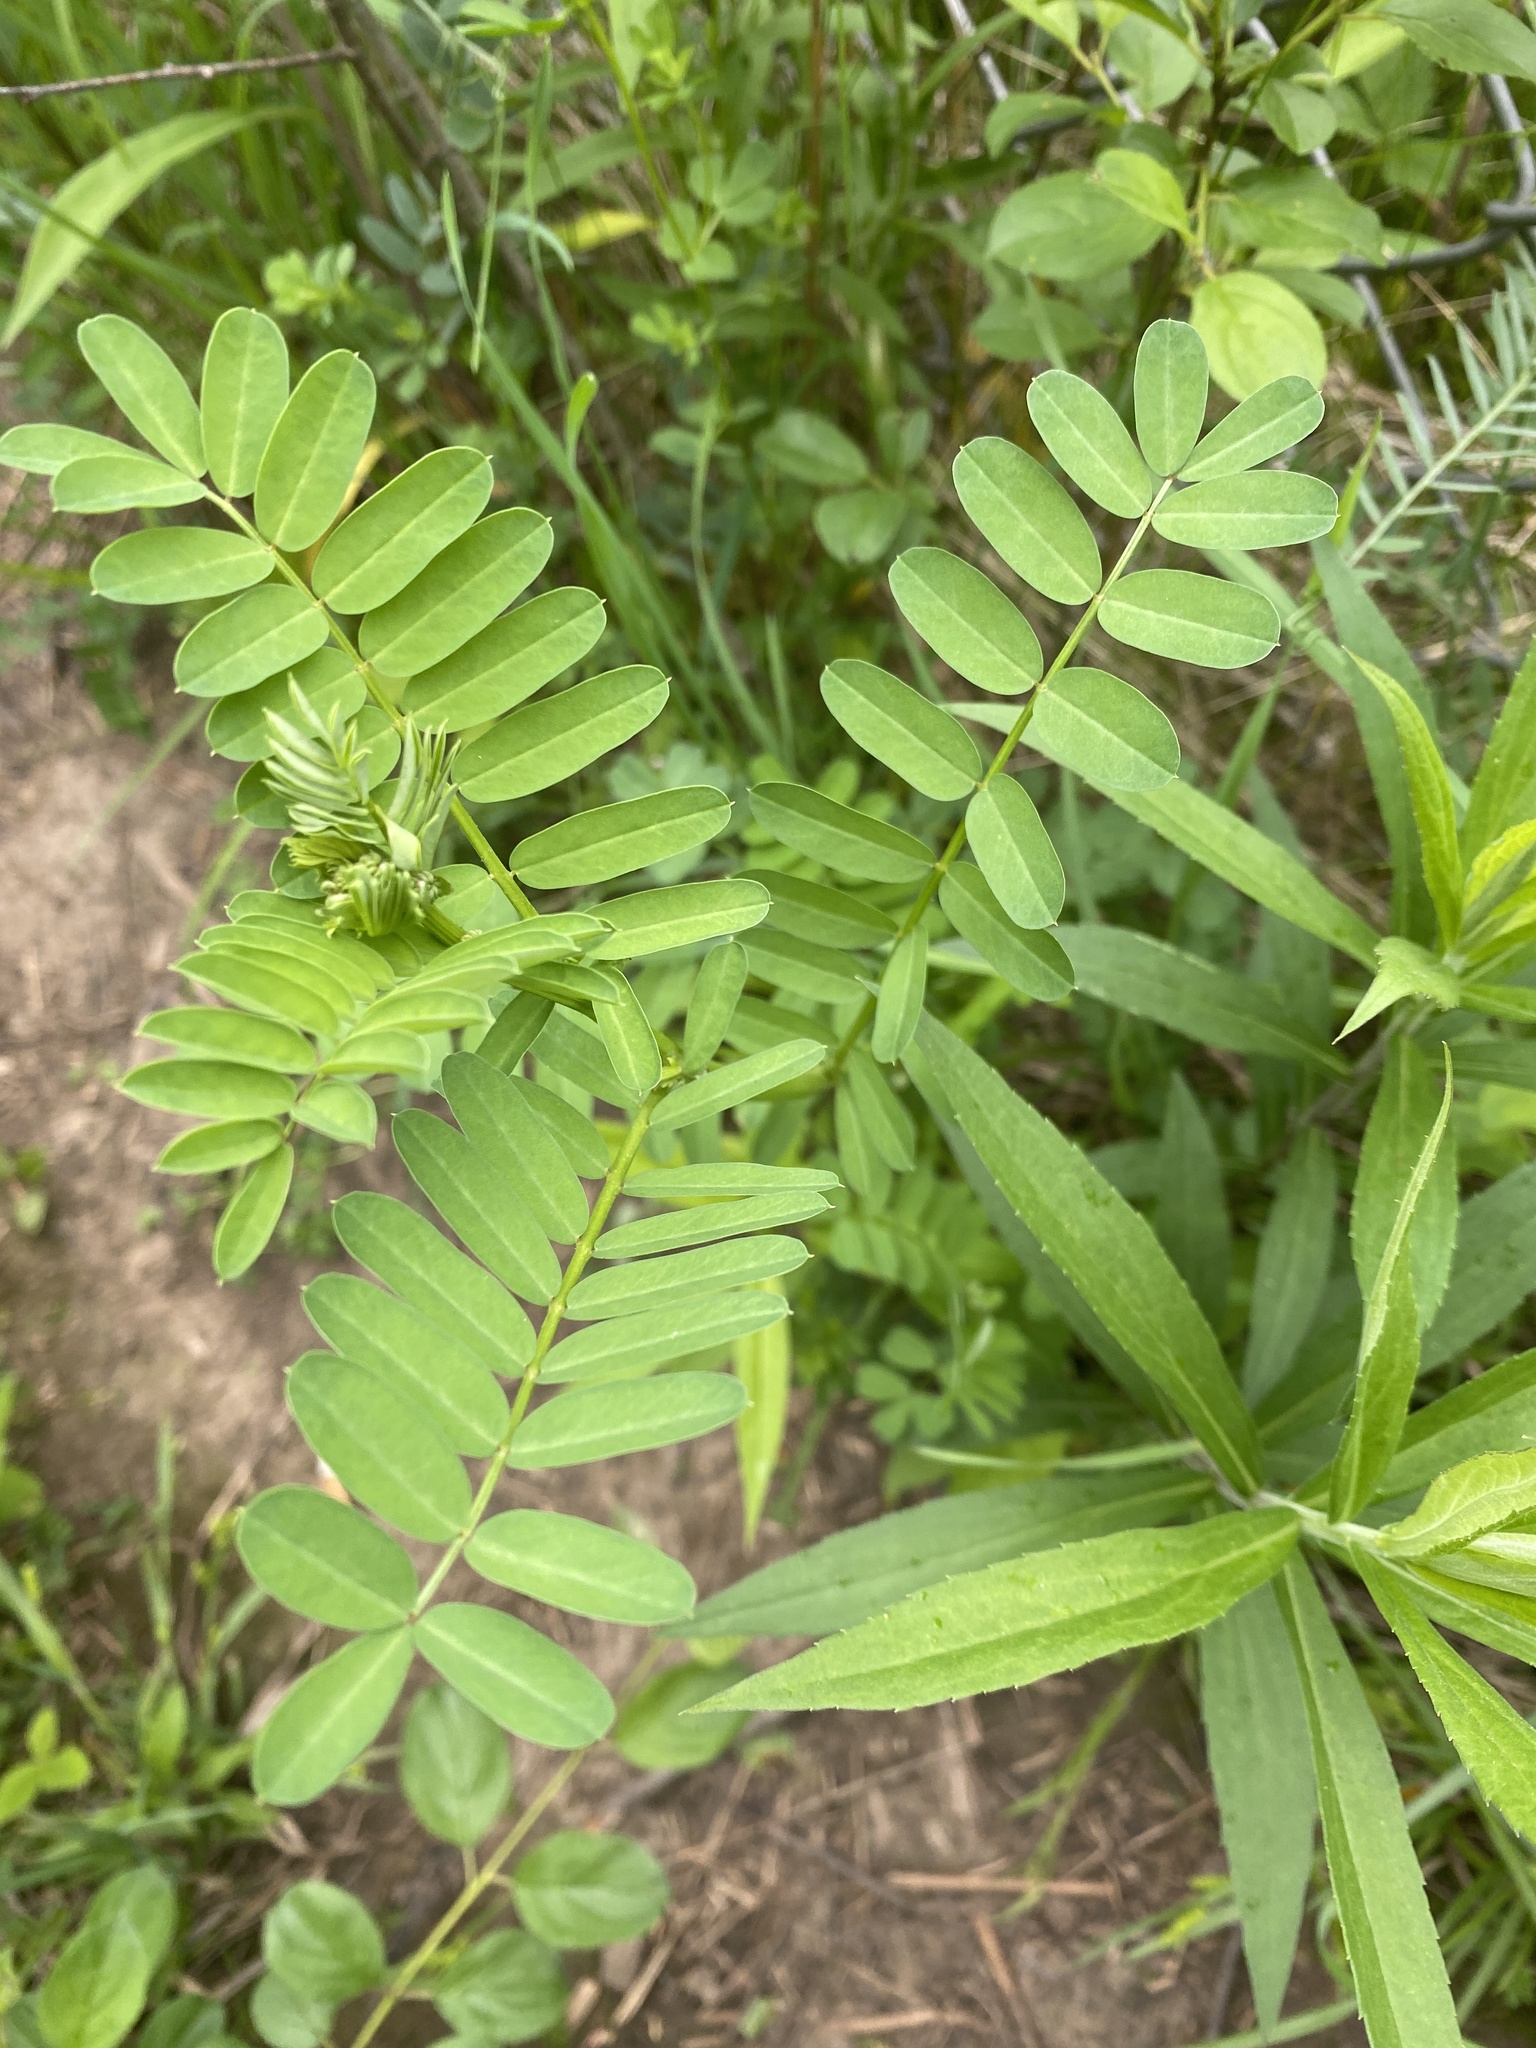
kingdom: Plantae
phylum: Tracheophyta
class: Magnoliopsida
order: Fabales
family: Fabaceae
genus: Coronilla
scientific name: Coronilla varia
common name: Crownvetch
